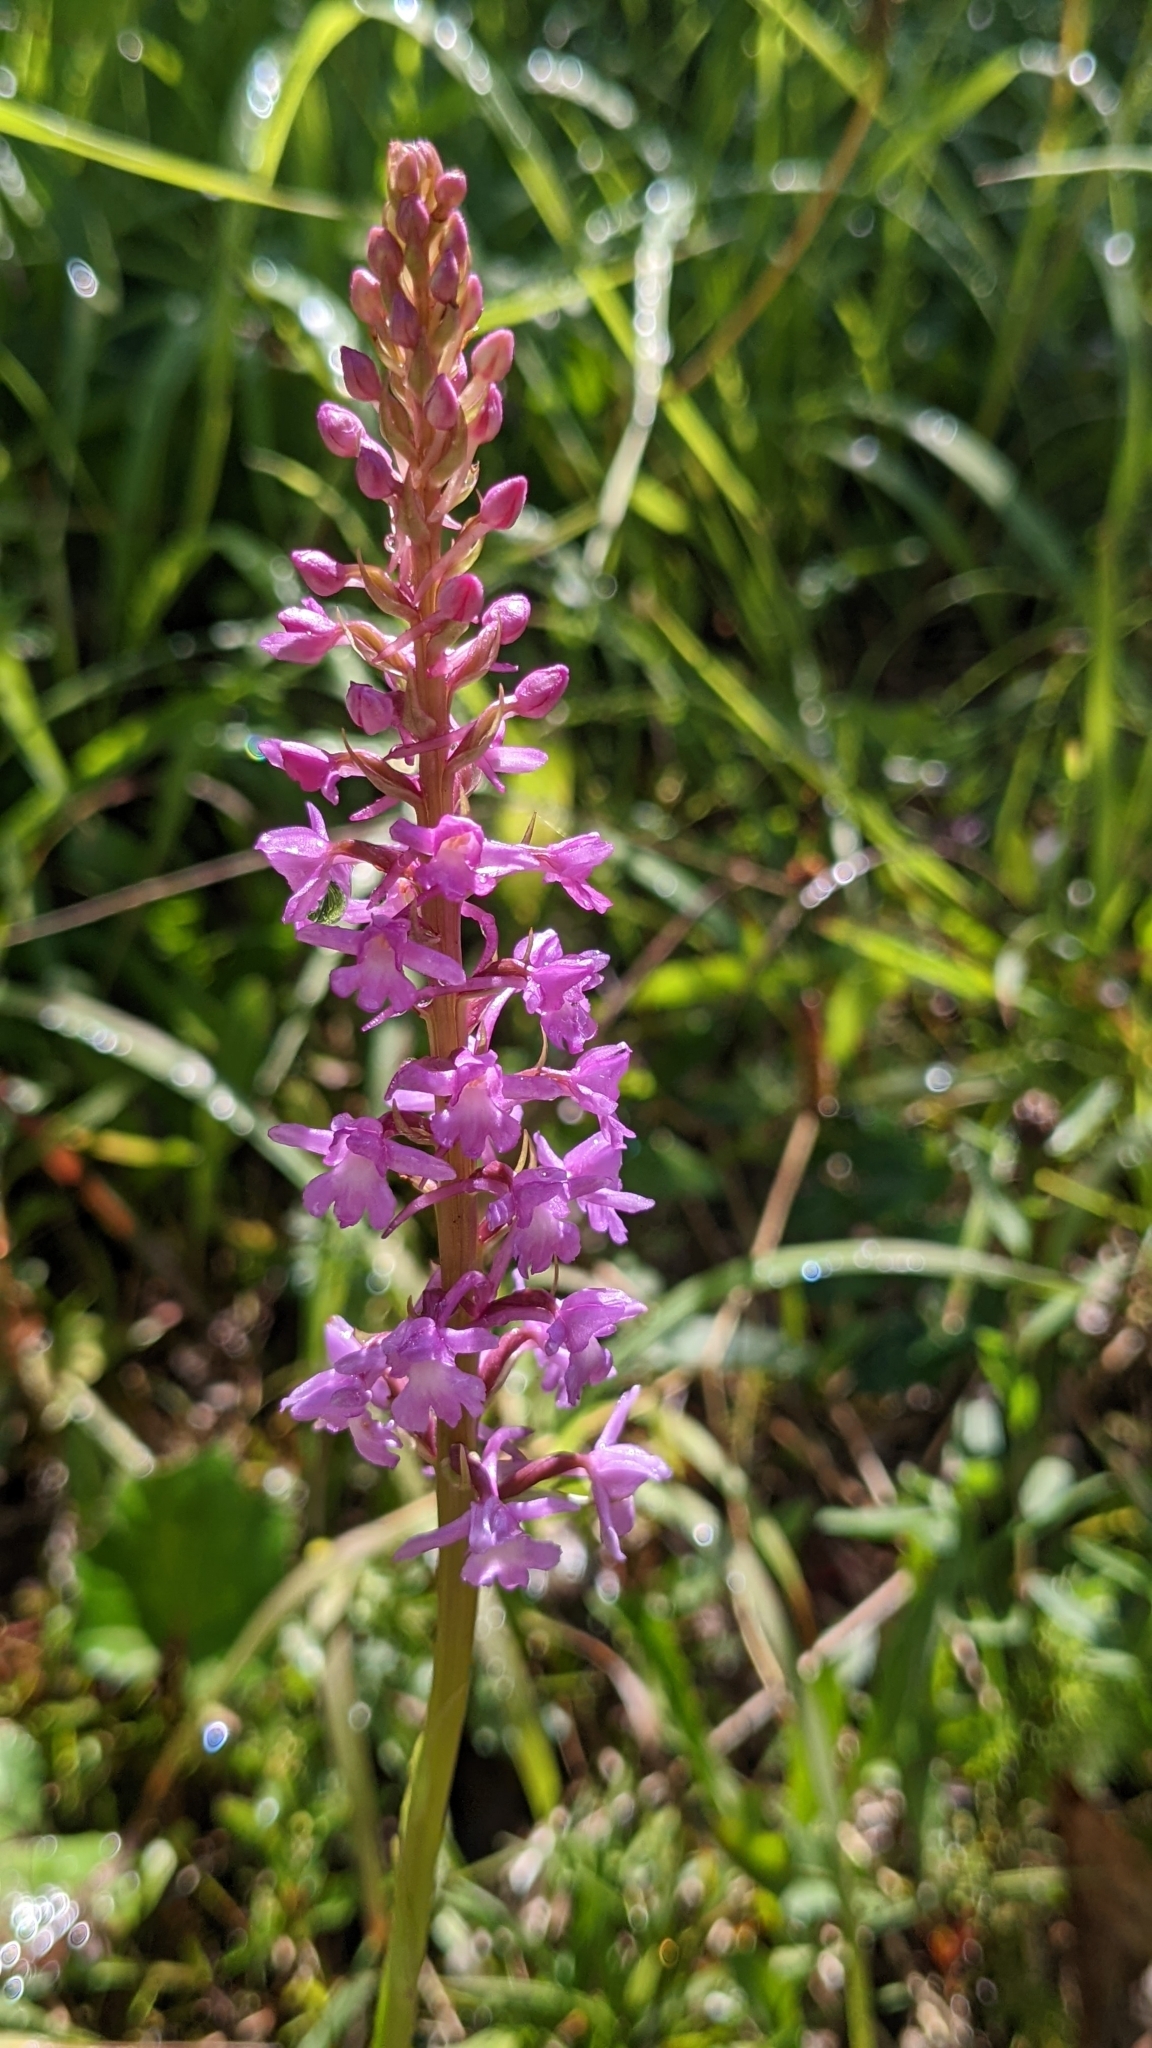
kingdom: Plantae
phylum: Tracheophyta
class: Liliopsida
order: Asparagales
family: Orchidaceae
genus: Gymnadenia
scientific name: Gymnadenia conopsea
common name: Fragrant orchid
